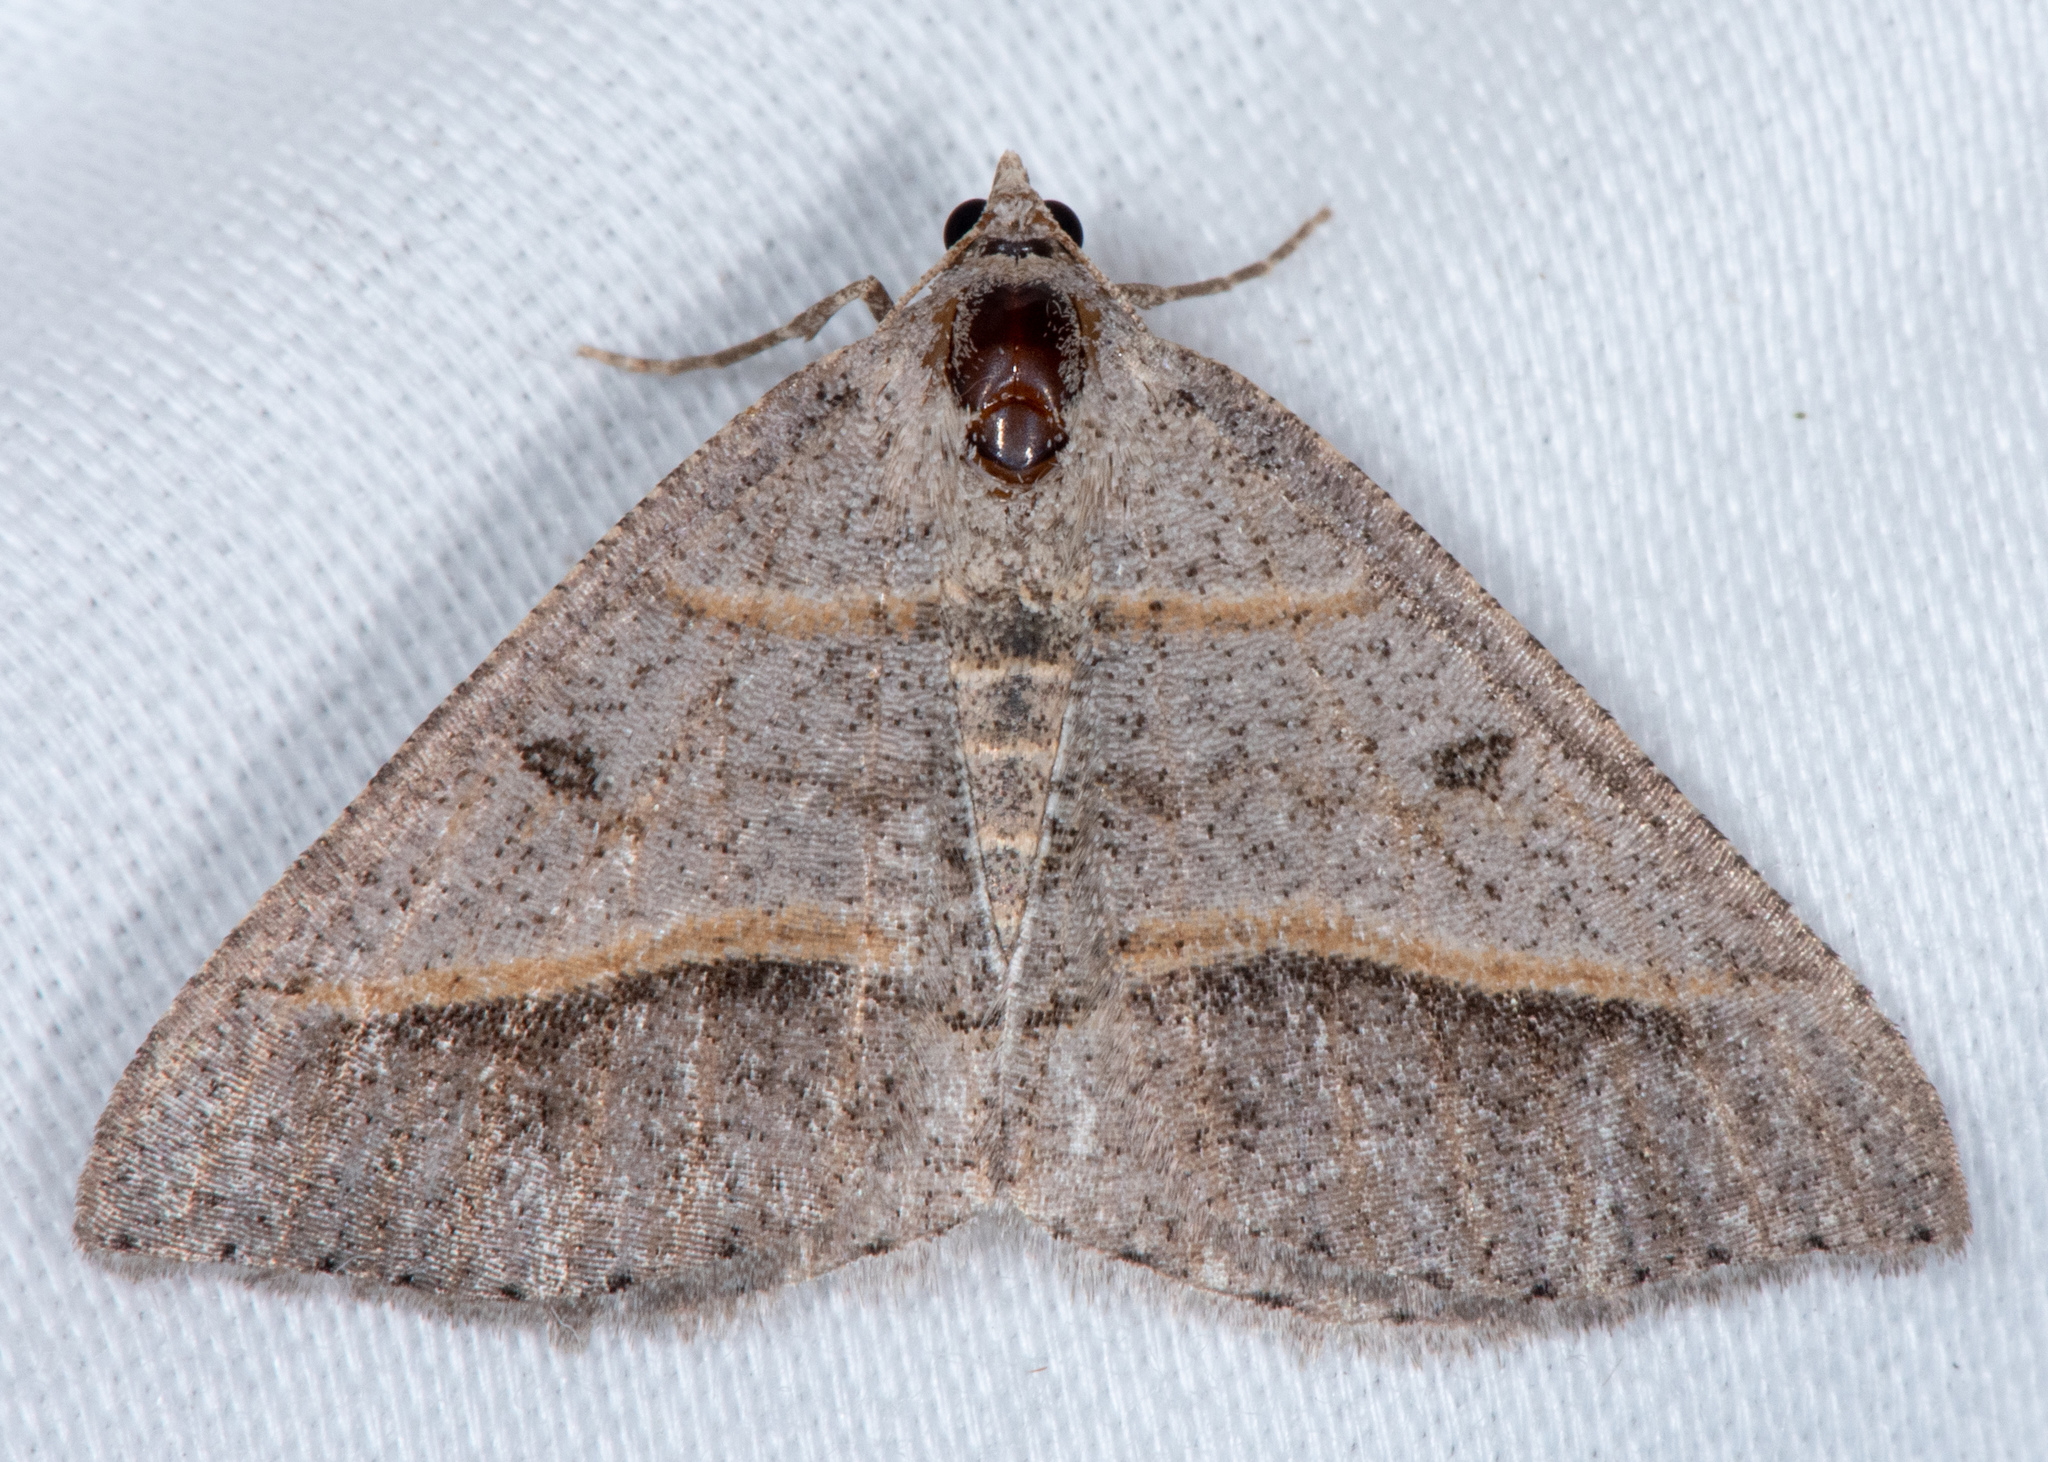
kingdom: Animalia
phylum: Arthropoda
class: Insecta
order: Lepidoptera
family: Geometridae
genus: Digrammia
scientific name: Digrammia neptaria
